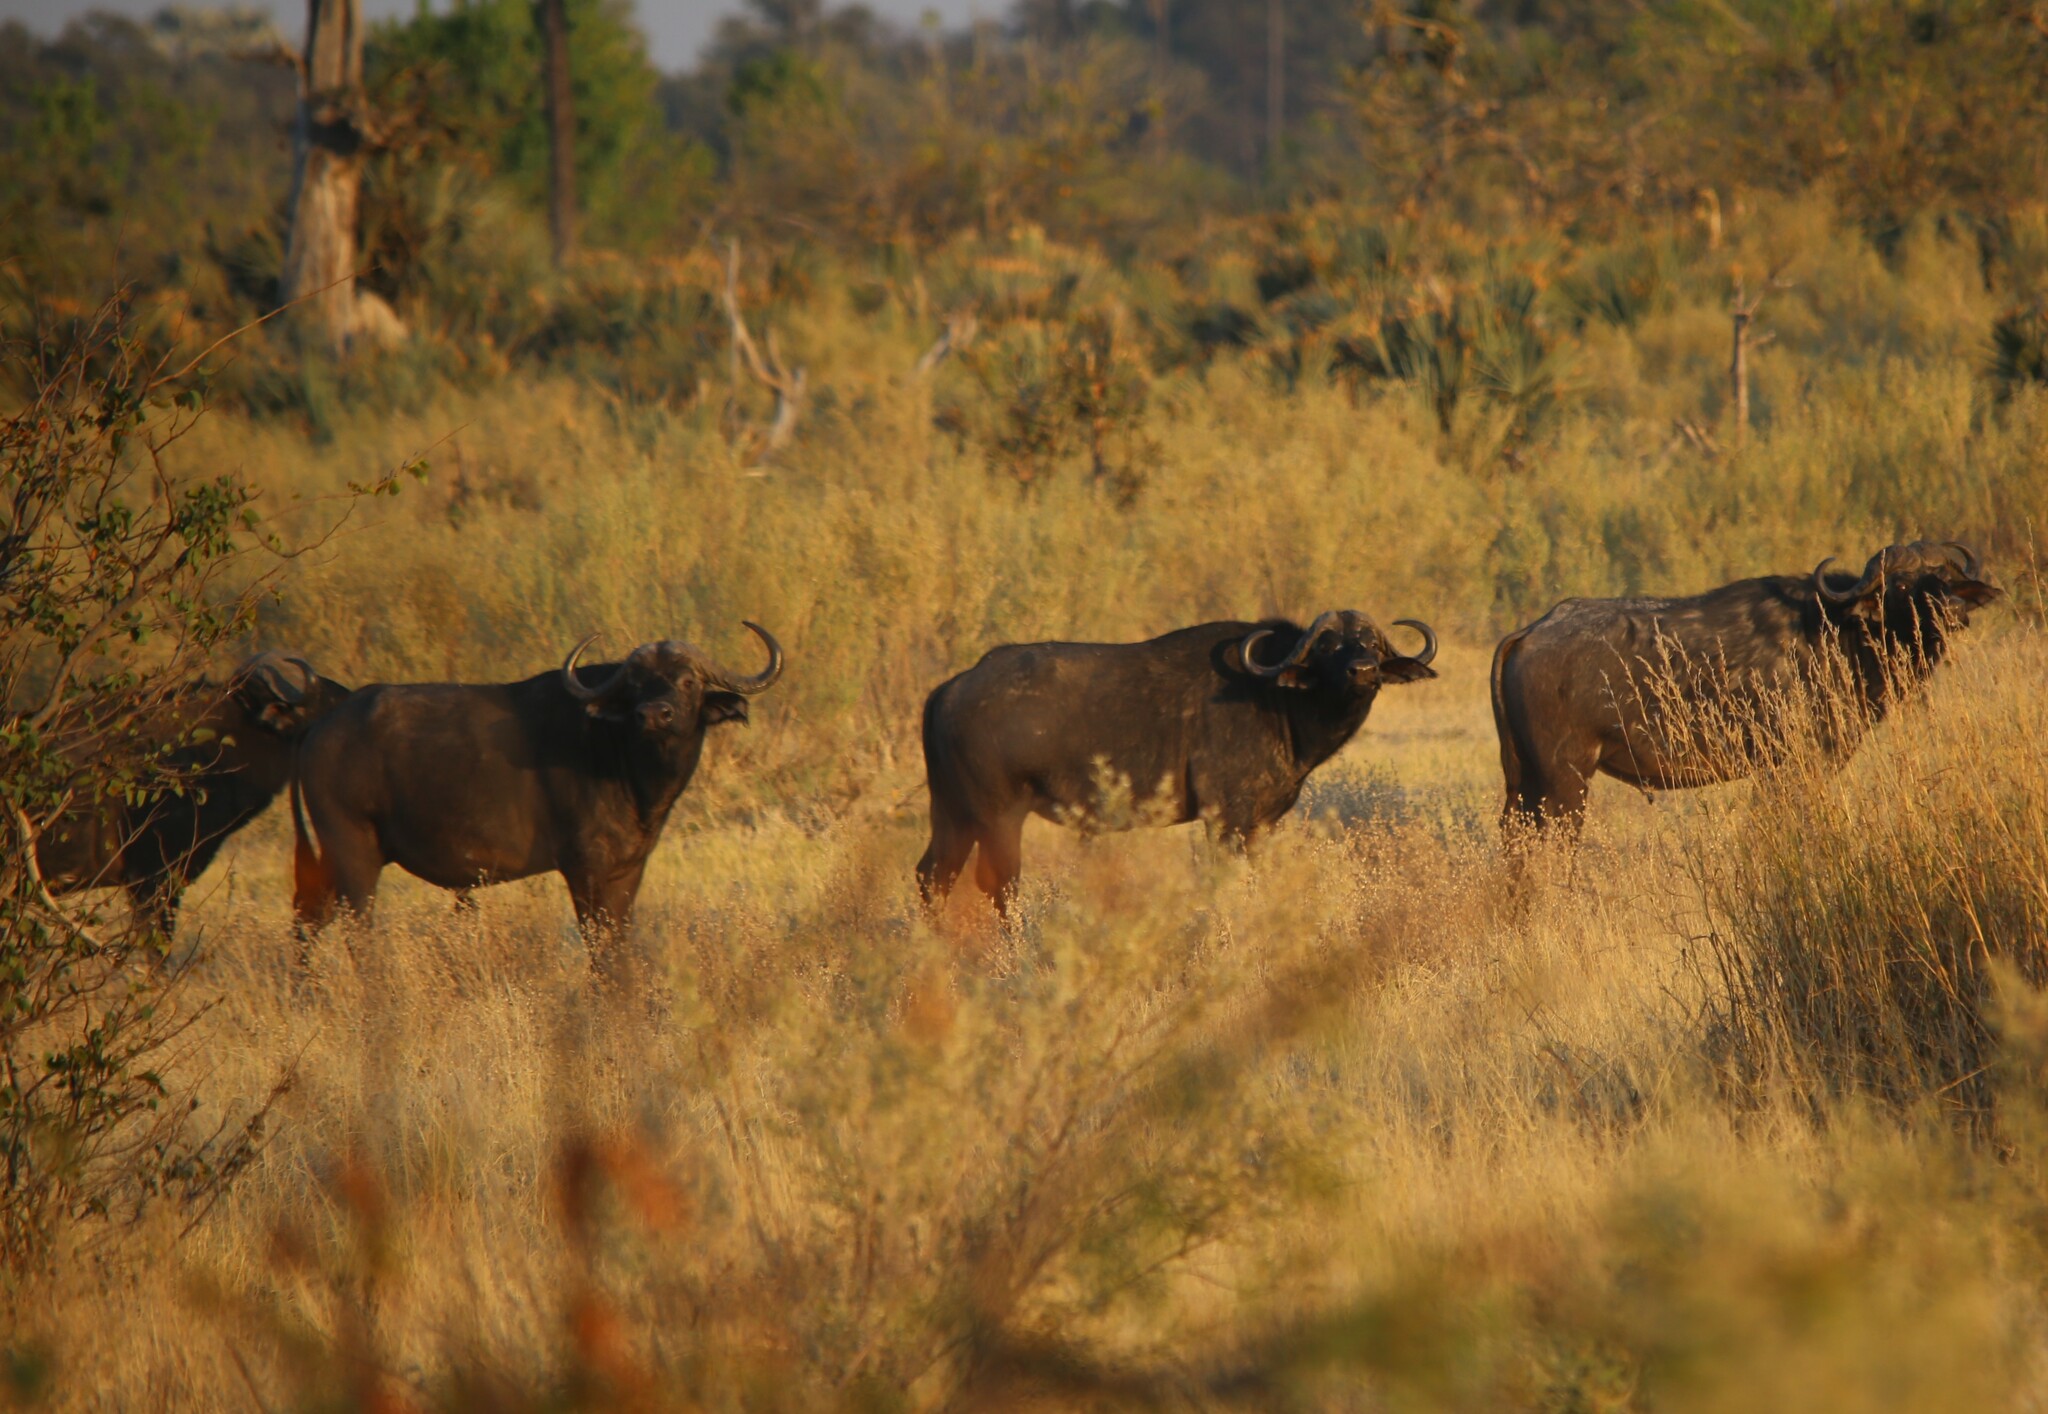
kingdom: Animalia
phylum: Chordata
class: Mammalia
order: Artiodactyla
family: Bovidae
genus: Syncerus
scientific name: Syncerus caffer
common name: African buffalo
